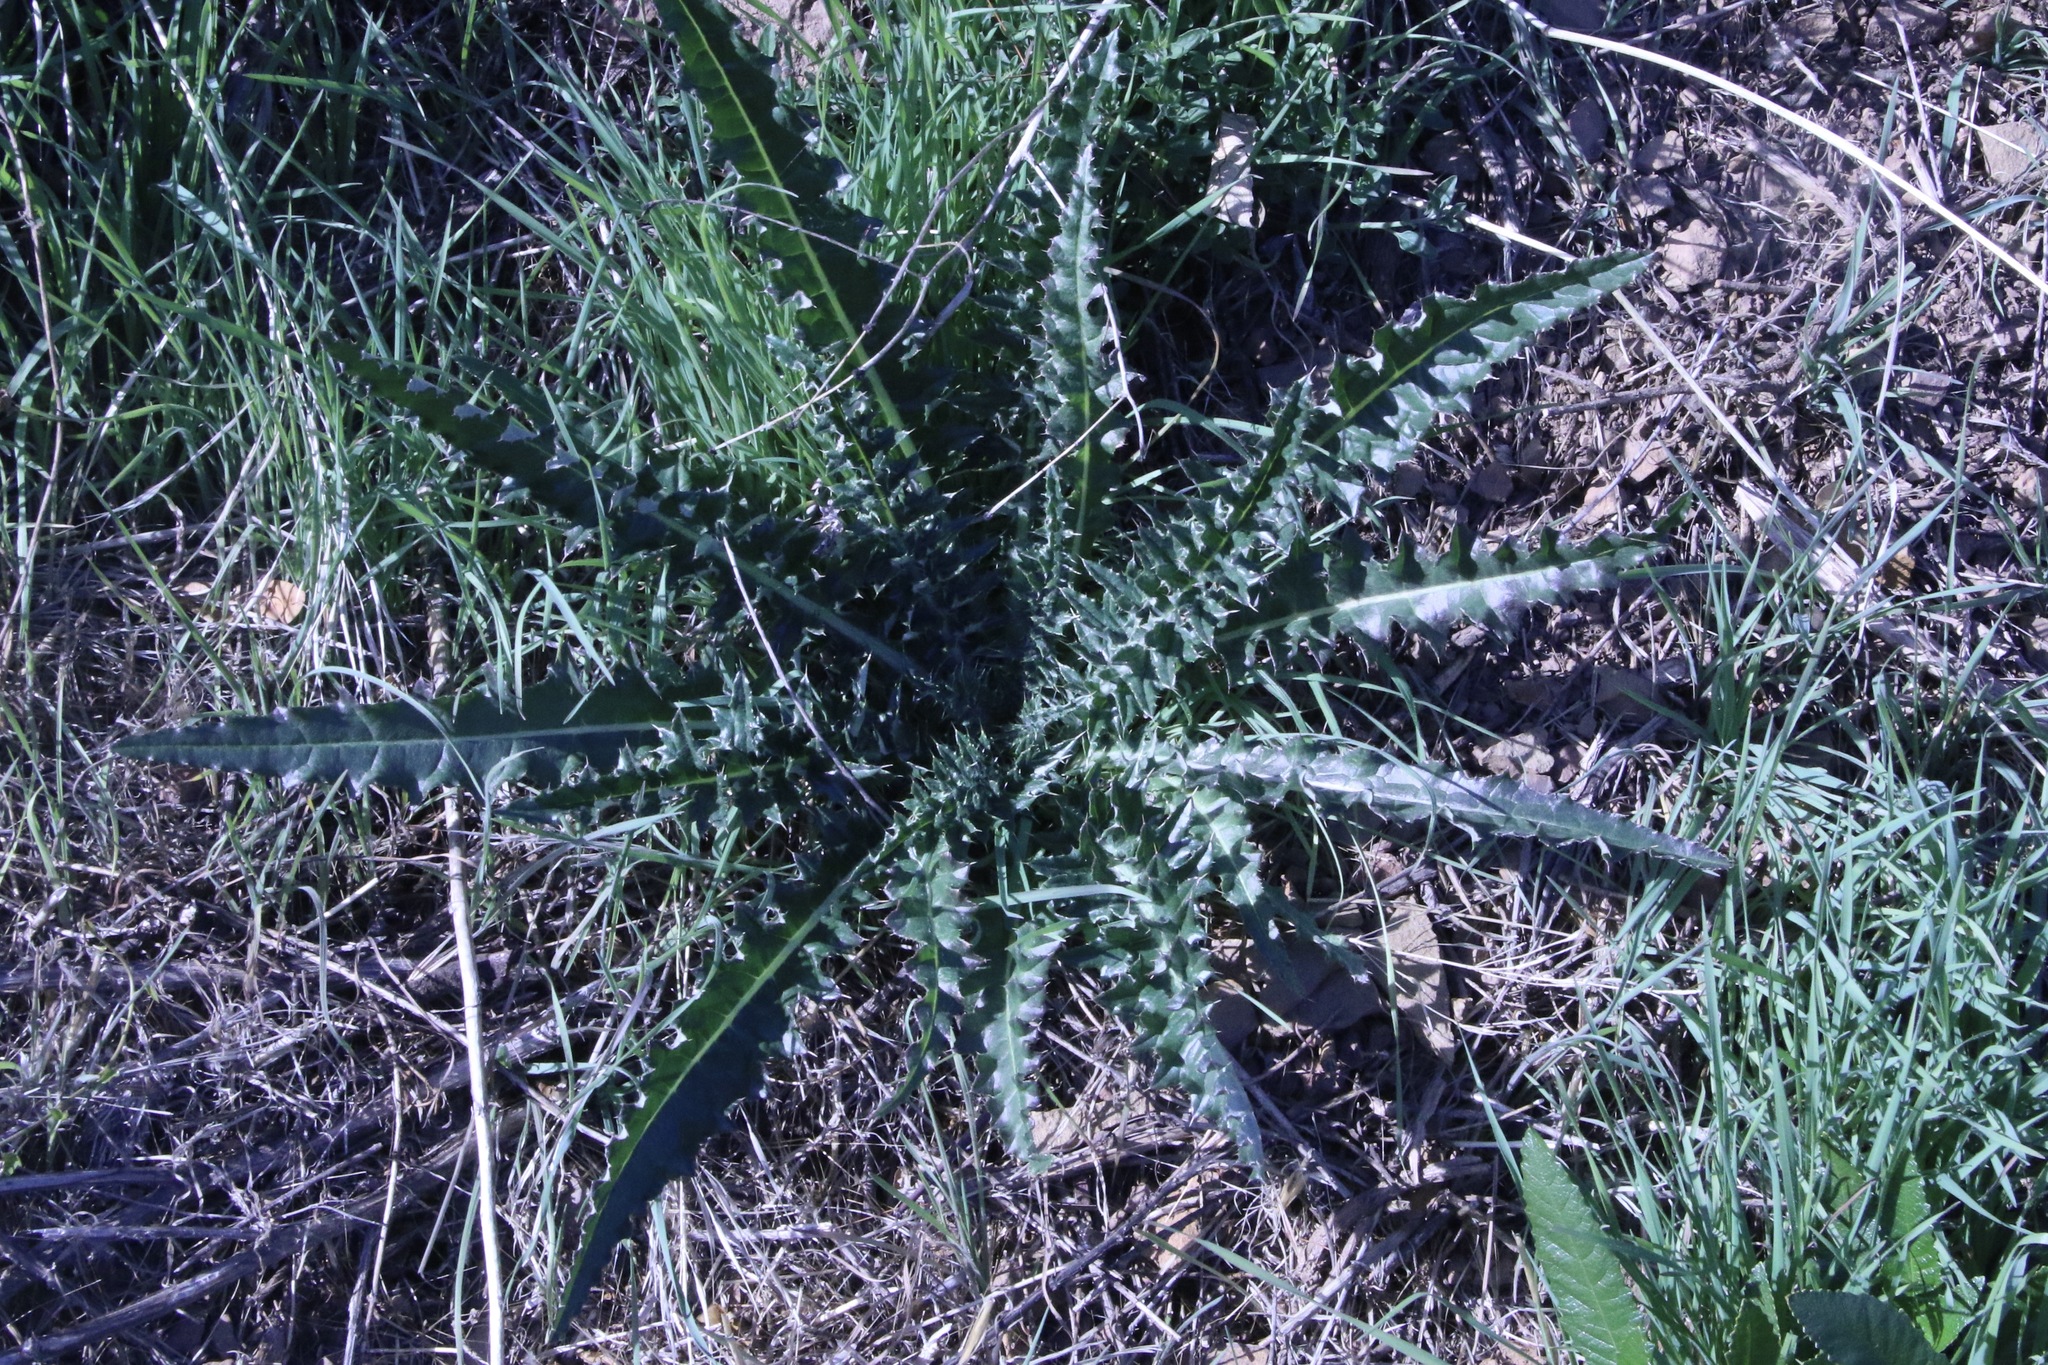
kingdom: Plantae
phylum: Tracheophyta
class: Magnoliopsida
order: Asterales
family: Asteraceae
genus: Cirsium
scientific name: Cirsium occidentale
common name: Western thistle
